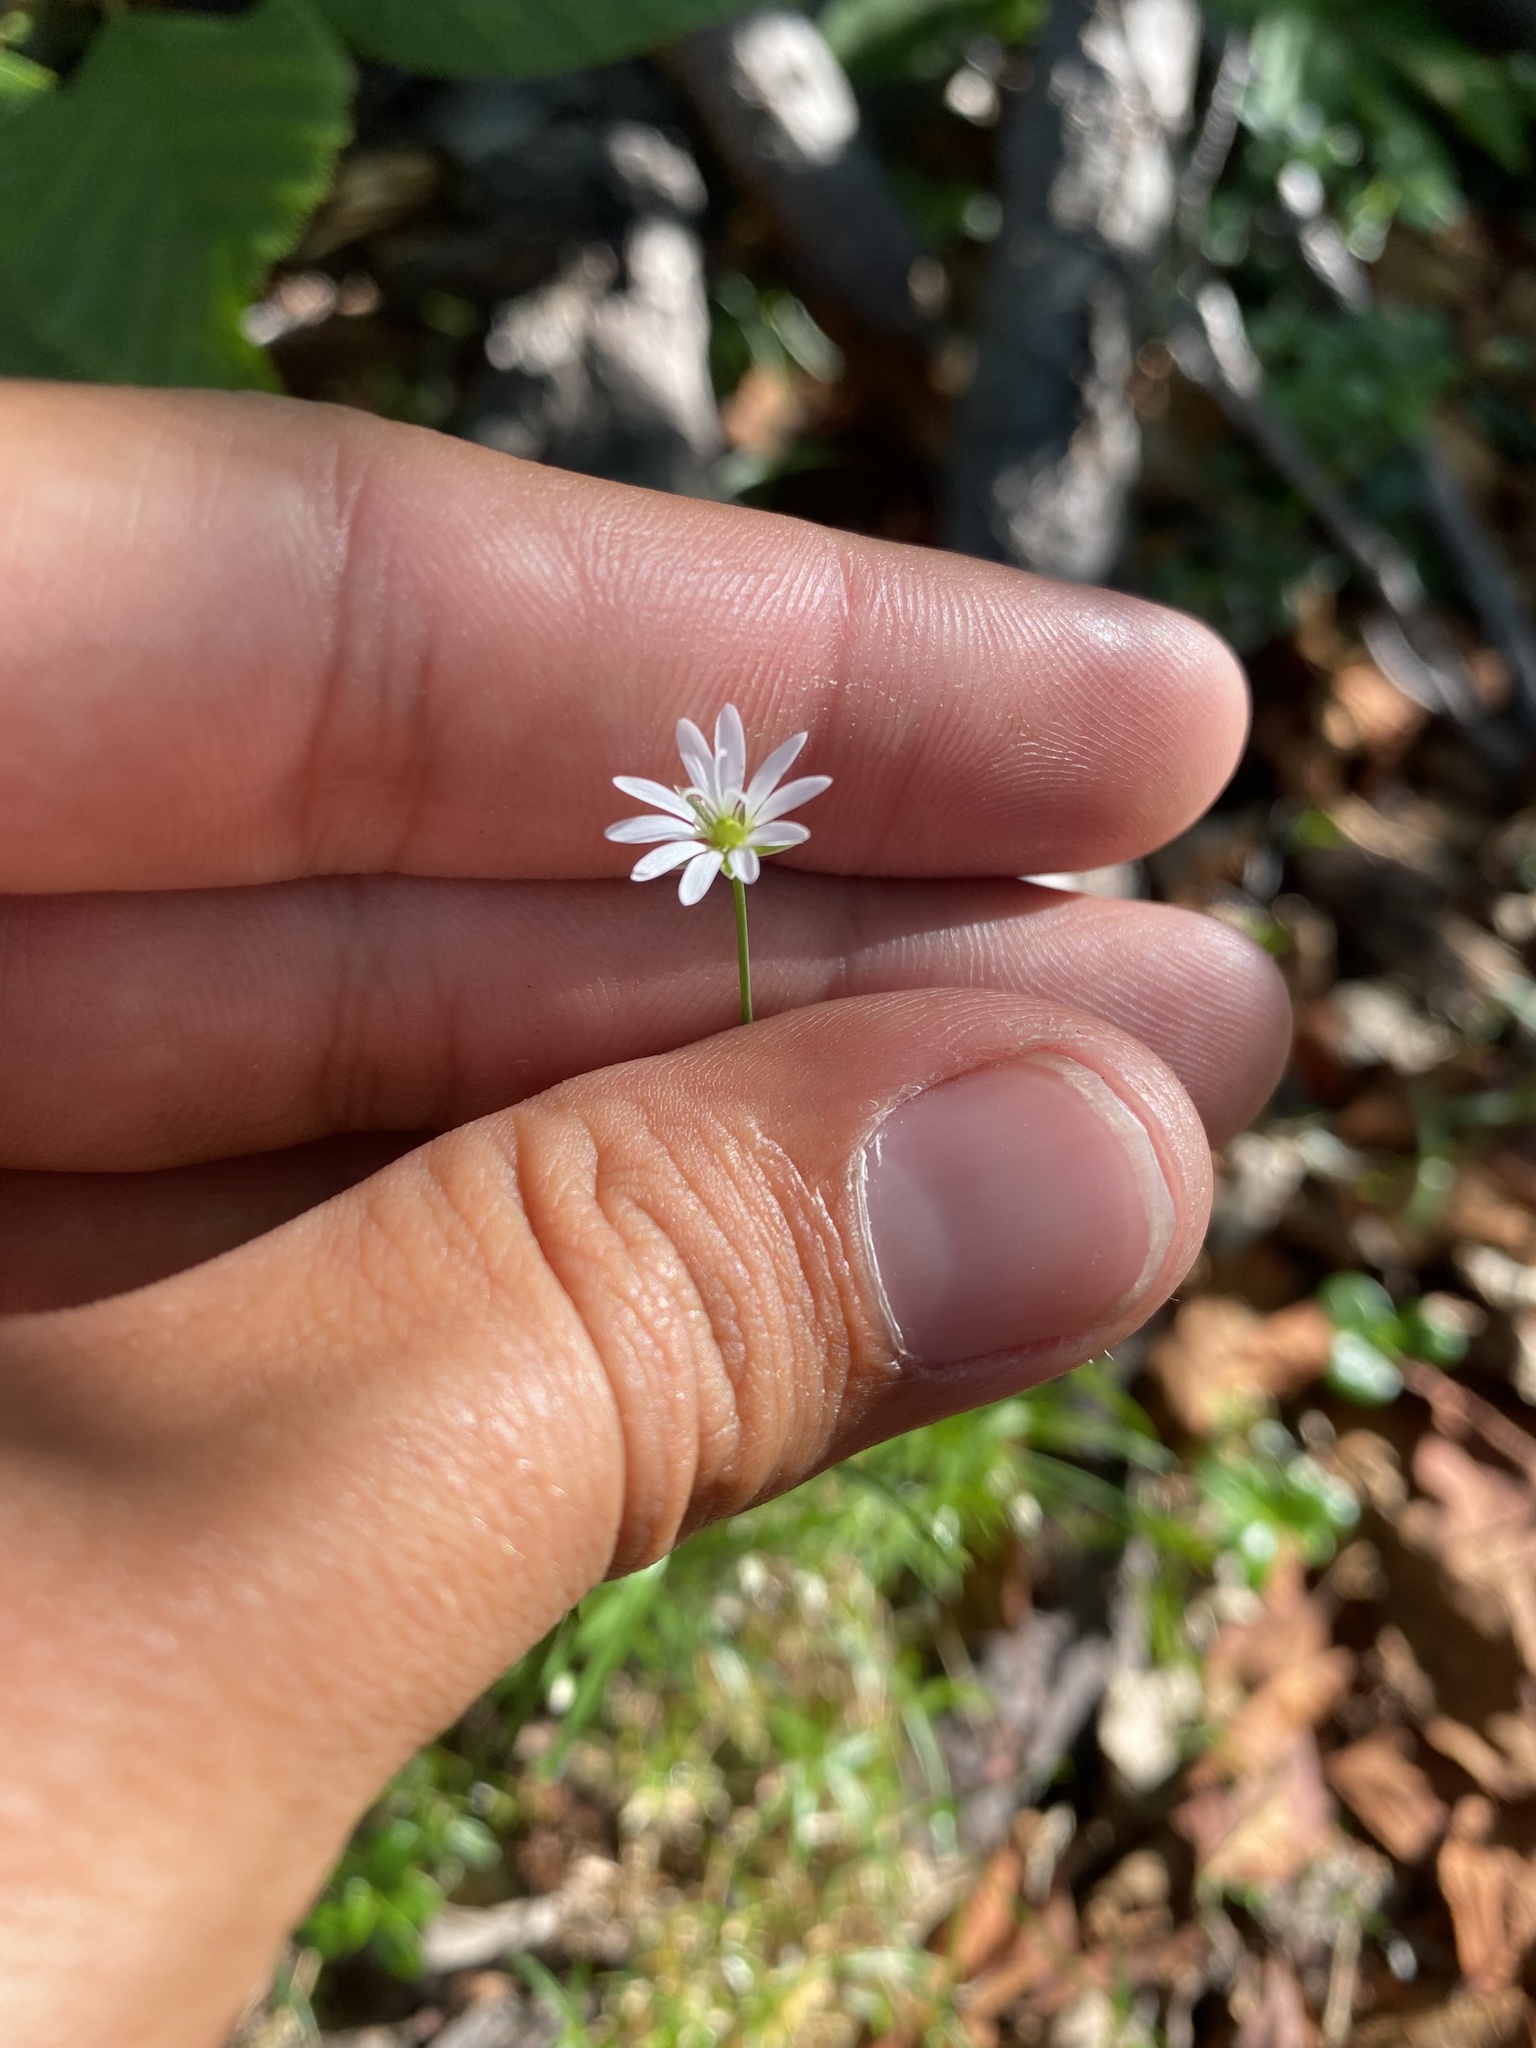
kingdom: Plantae
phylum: Tracheophyta
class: Magnoliopsida
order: Caryophyllales
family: Caryophyllaceae
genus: Stellaria
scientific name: Stellaria peduncularis
